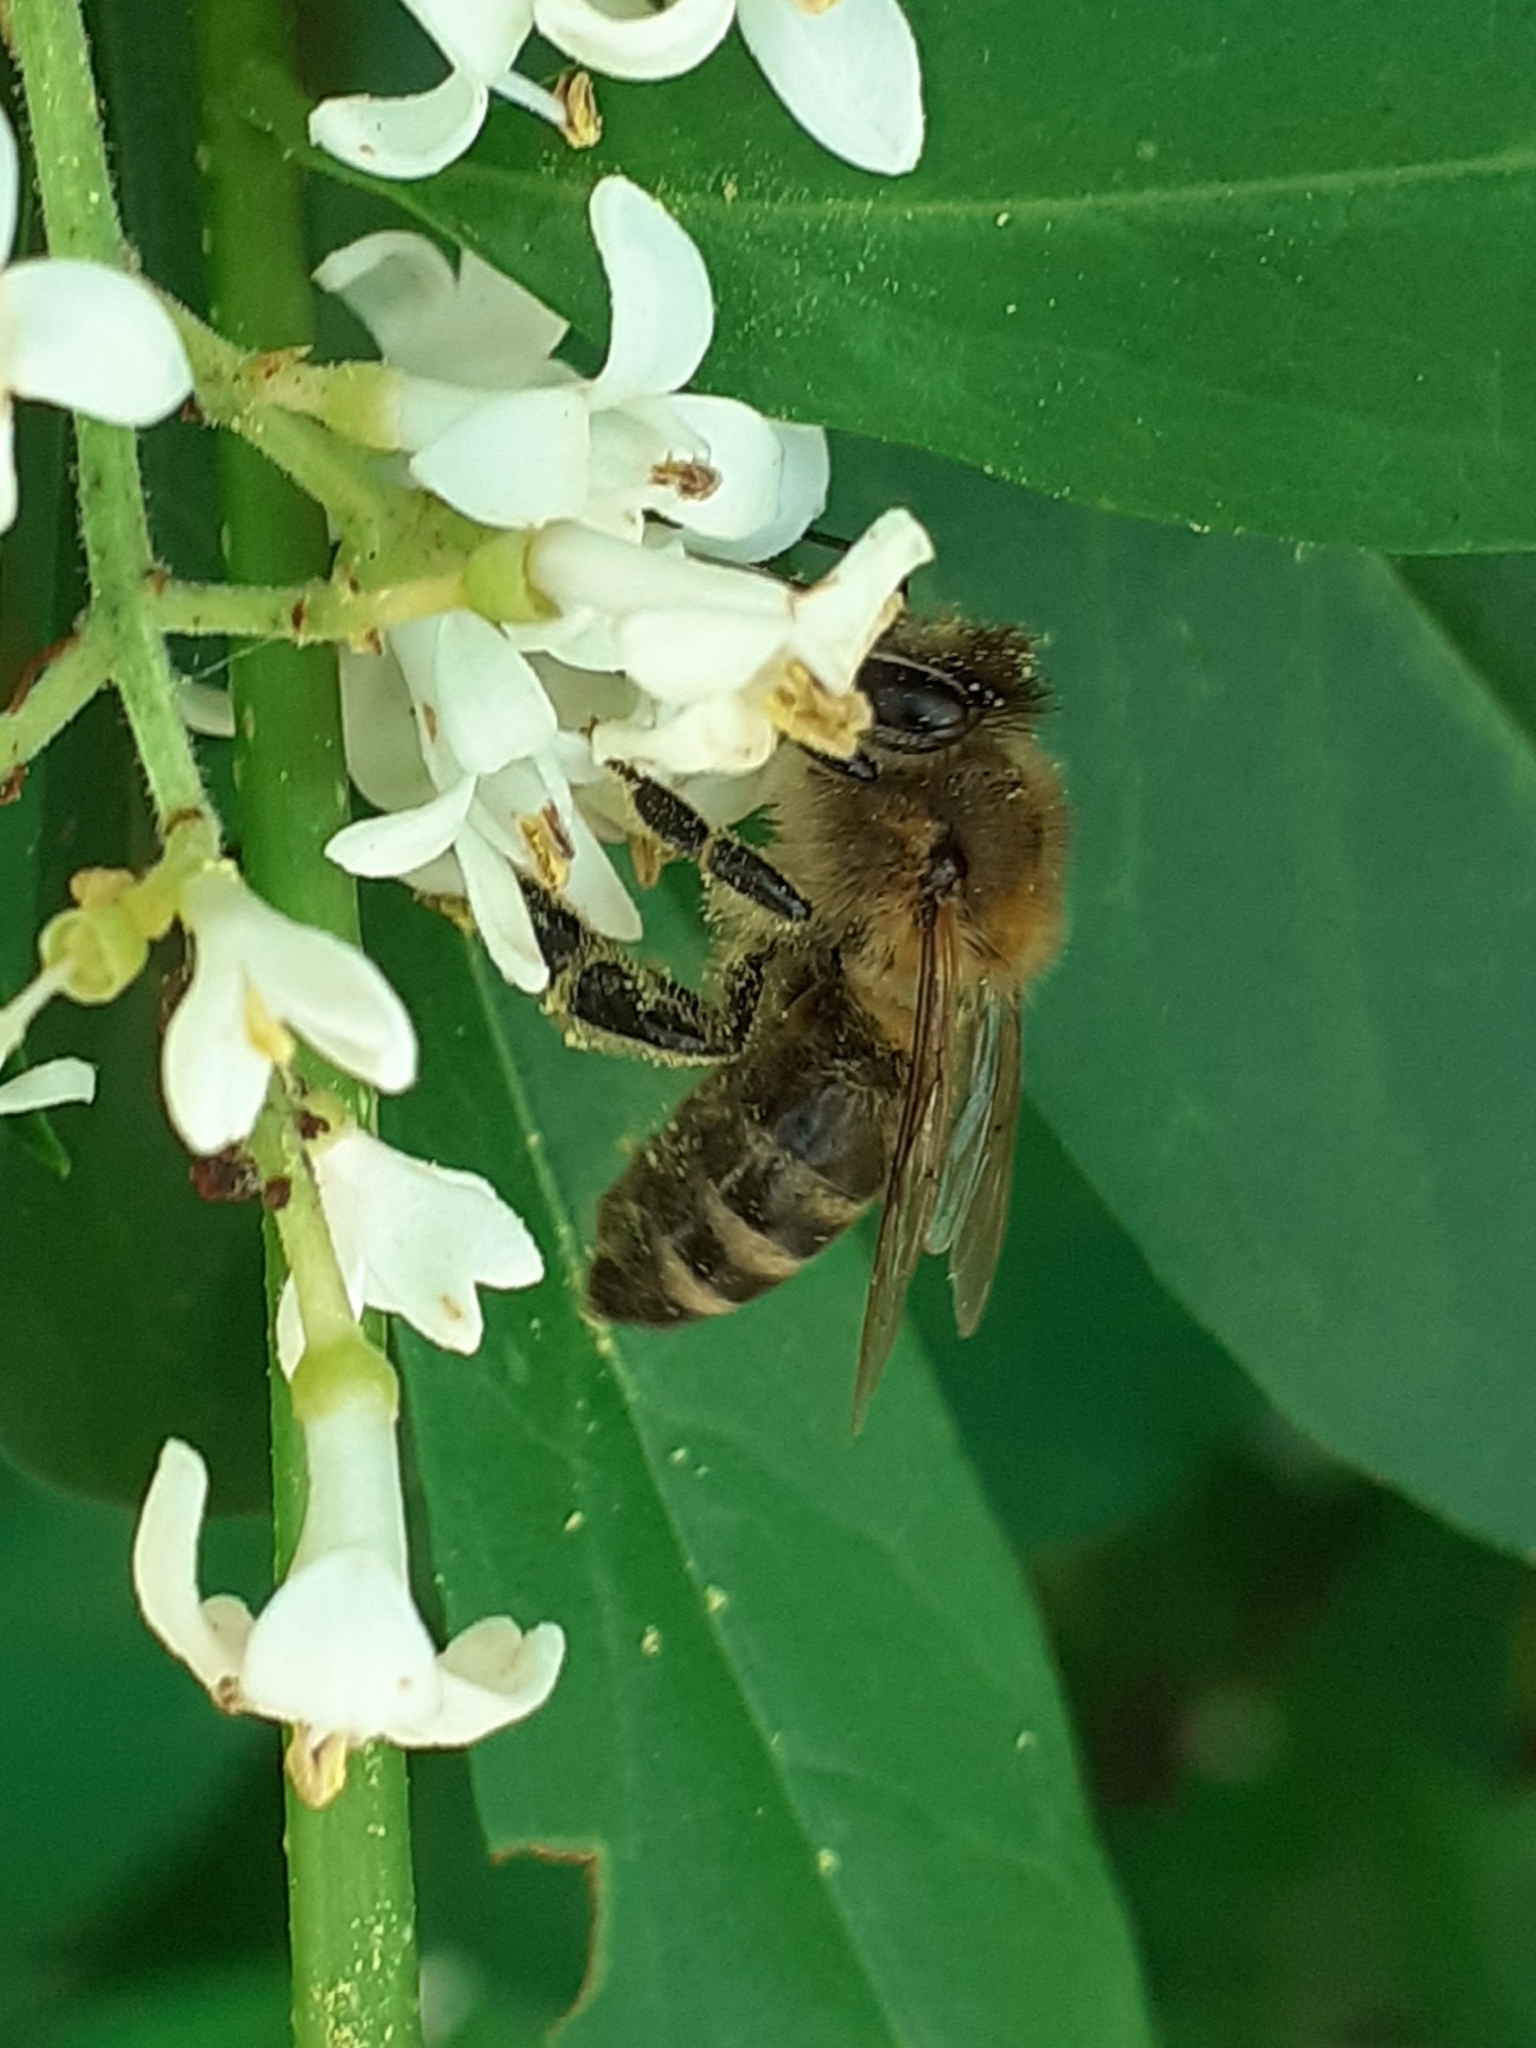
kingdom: Animalia
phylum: Arthropoda
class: Insecta
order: Hymenoptera
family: Apidae
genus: Apis
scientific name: Apis mellifera
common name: Honey bee
